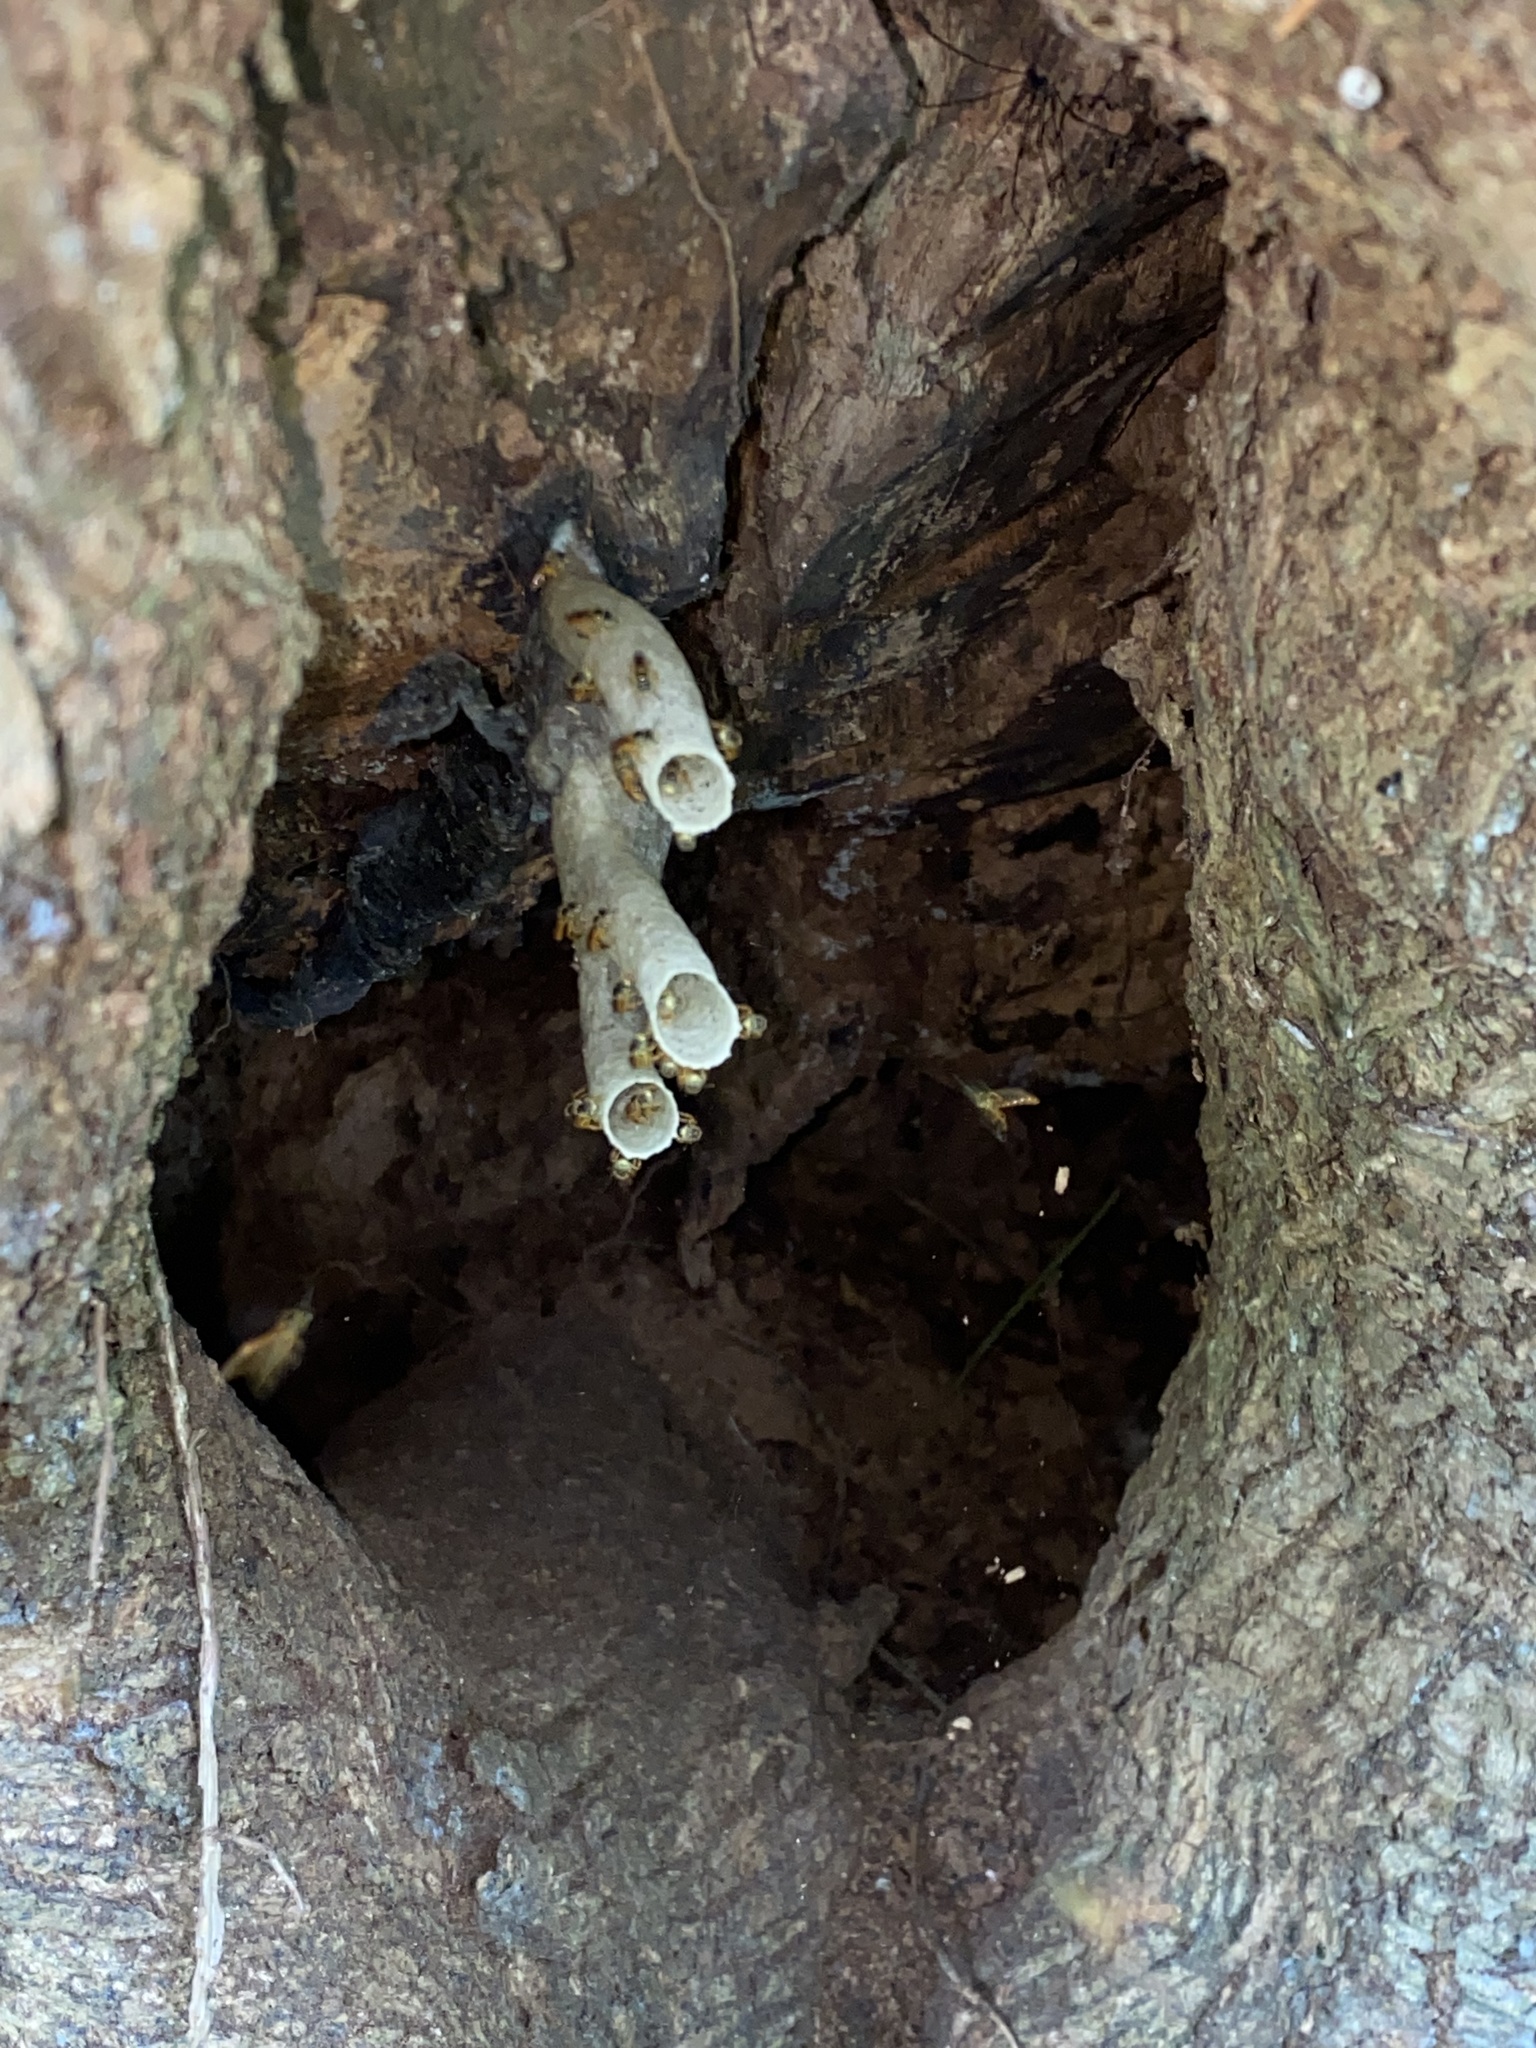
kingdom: Animalia
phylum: Arthropoda
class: Insecta
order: Hymenoptera
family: Apidae
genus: Tetragonisca
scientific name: Tetragonisca angustula
